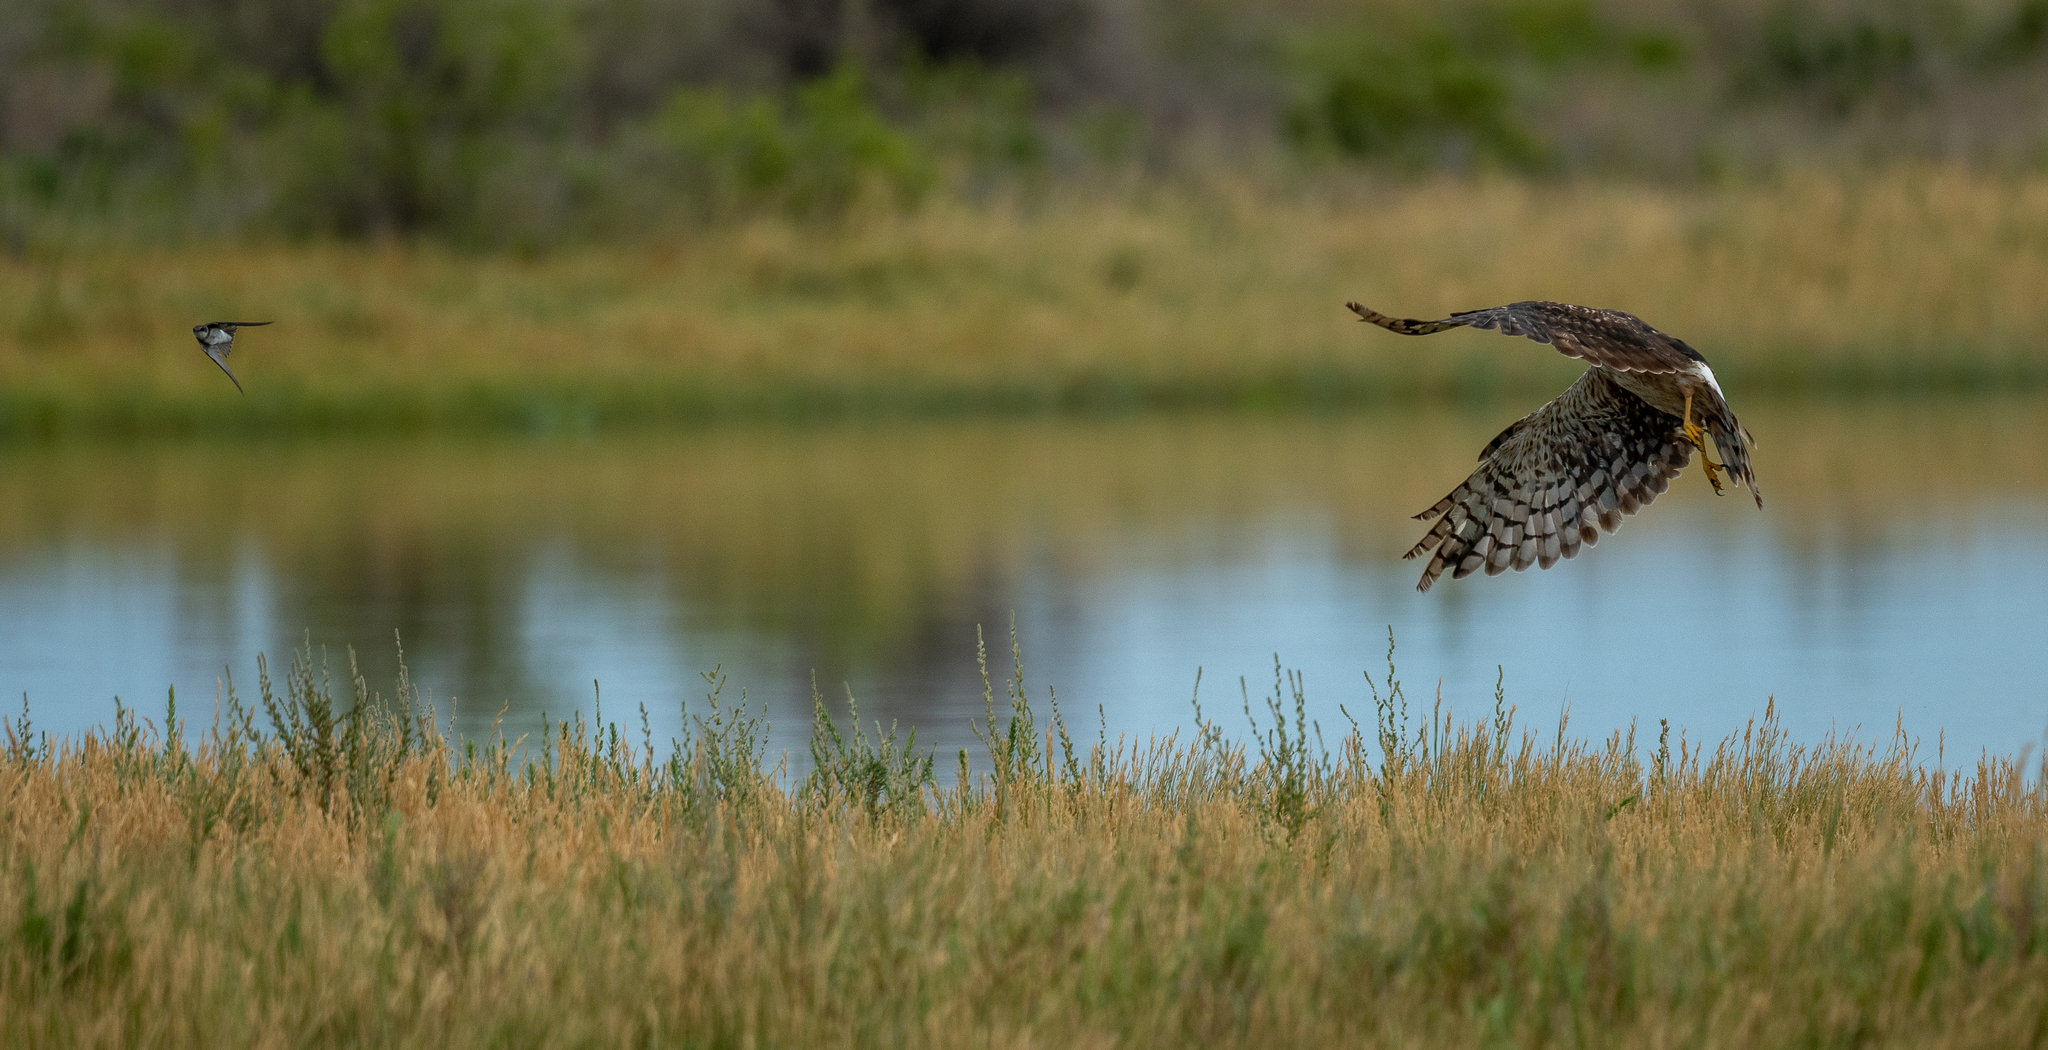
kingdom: Animalia
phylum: Chordata
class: Aves
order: Accipitriformes
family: Accipitridae
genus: Circus
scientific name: Circus cyaneus
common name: Hen harrier
